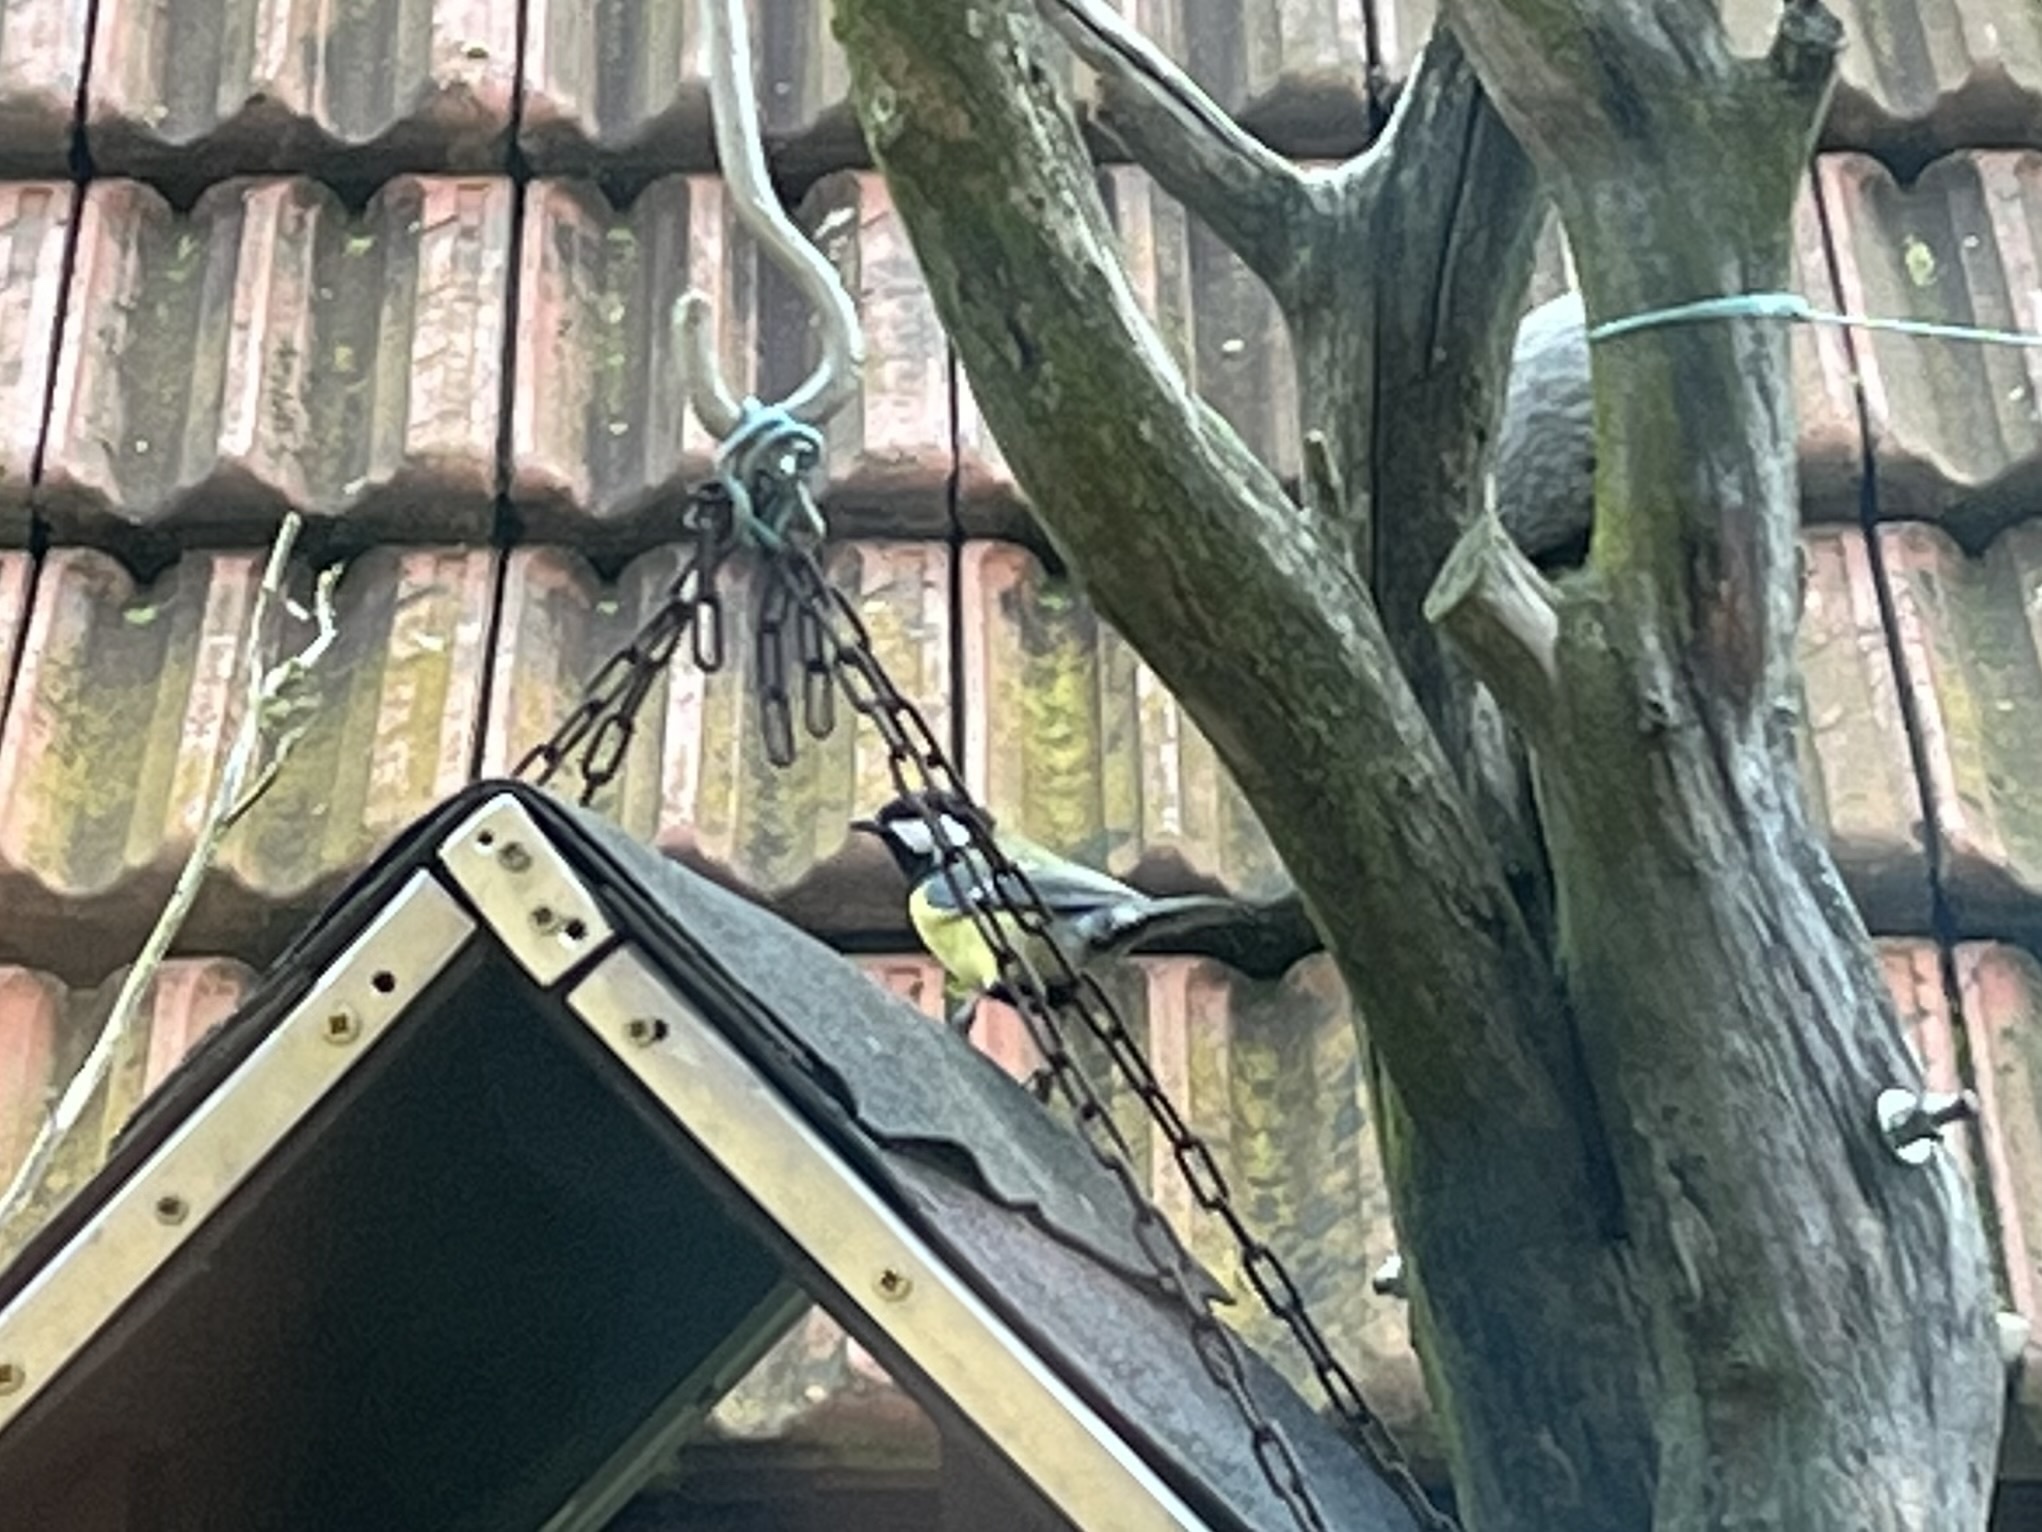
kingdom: Animalia
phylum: Chordata
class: Aves
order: Passeriformes
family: Paridae
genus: Parus
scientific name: Parus major
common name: Great tit
